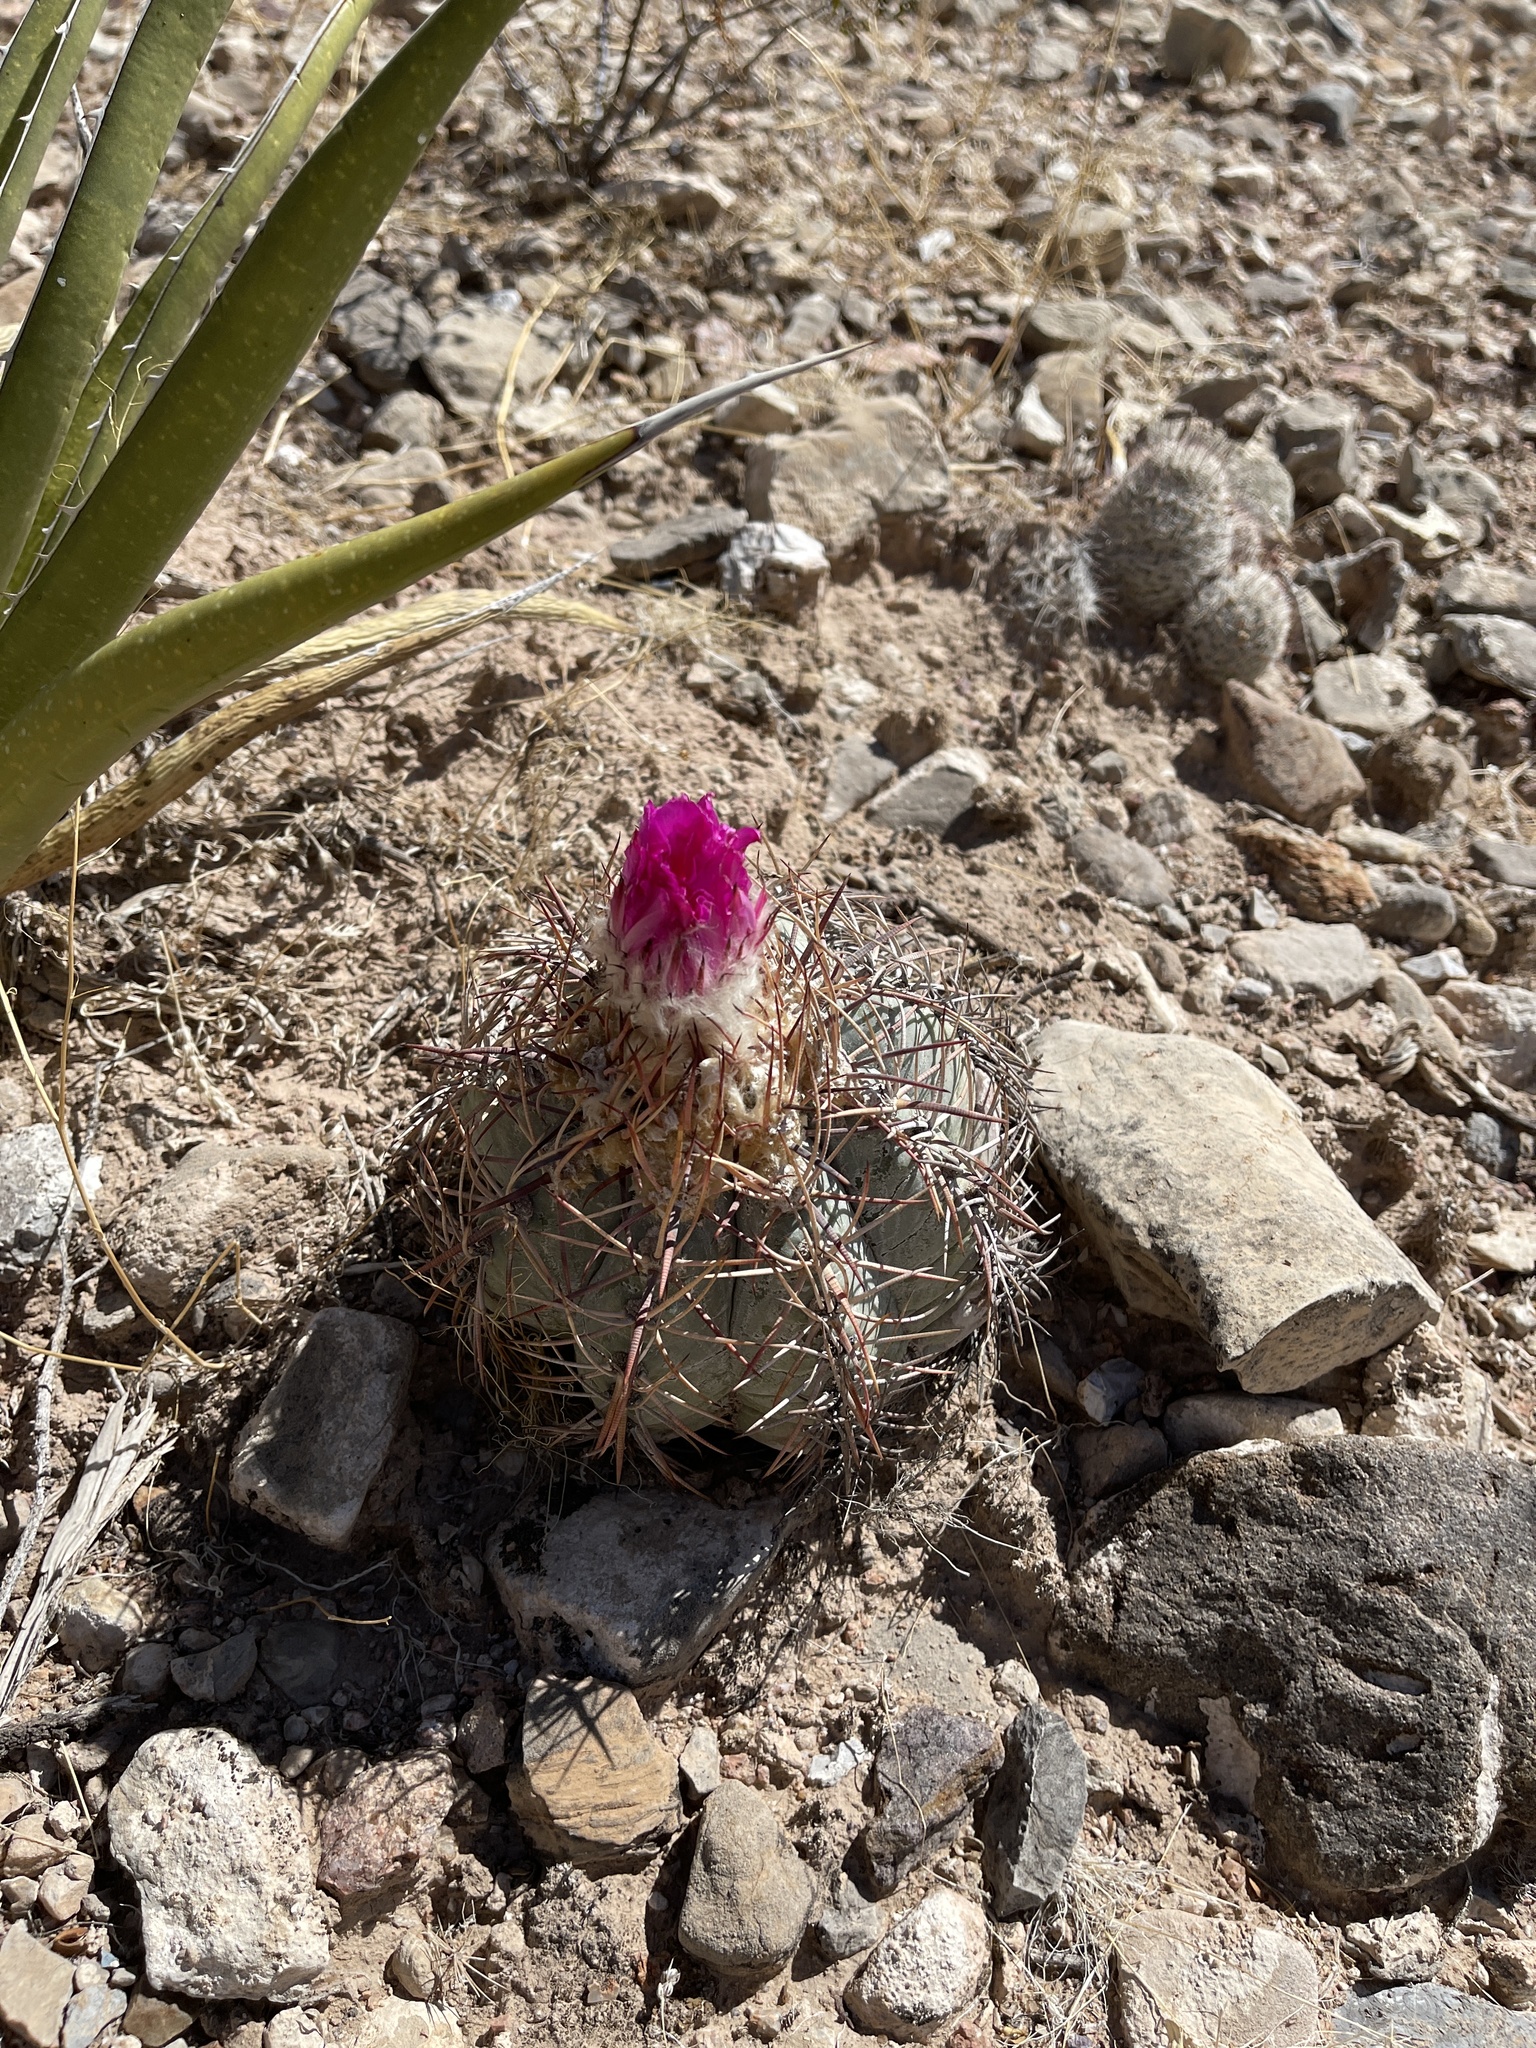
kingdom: Plantae
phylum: Tracheophyta
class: Magnoliopsida
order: Caryophyllales
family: Cactaceae
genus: Echinocactus
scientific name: Echinocactus horizonthalonius
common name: Devilshead
